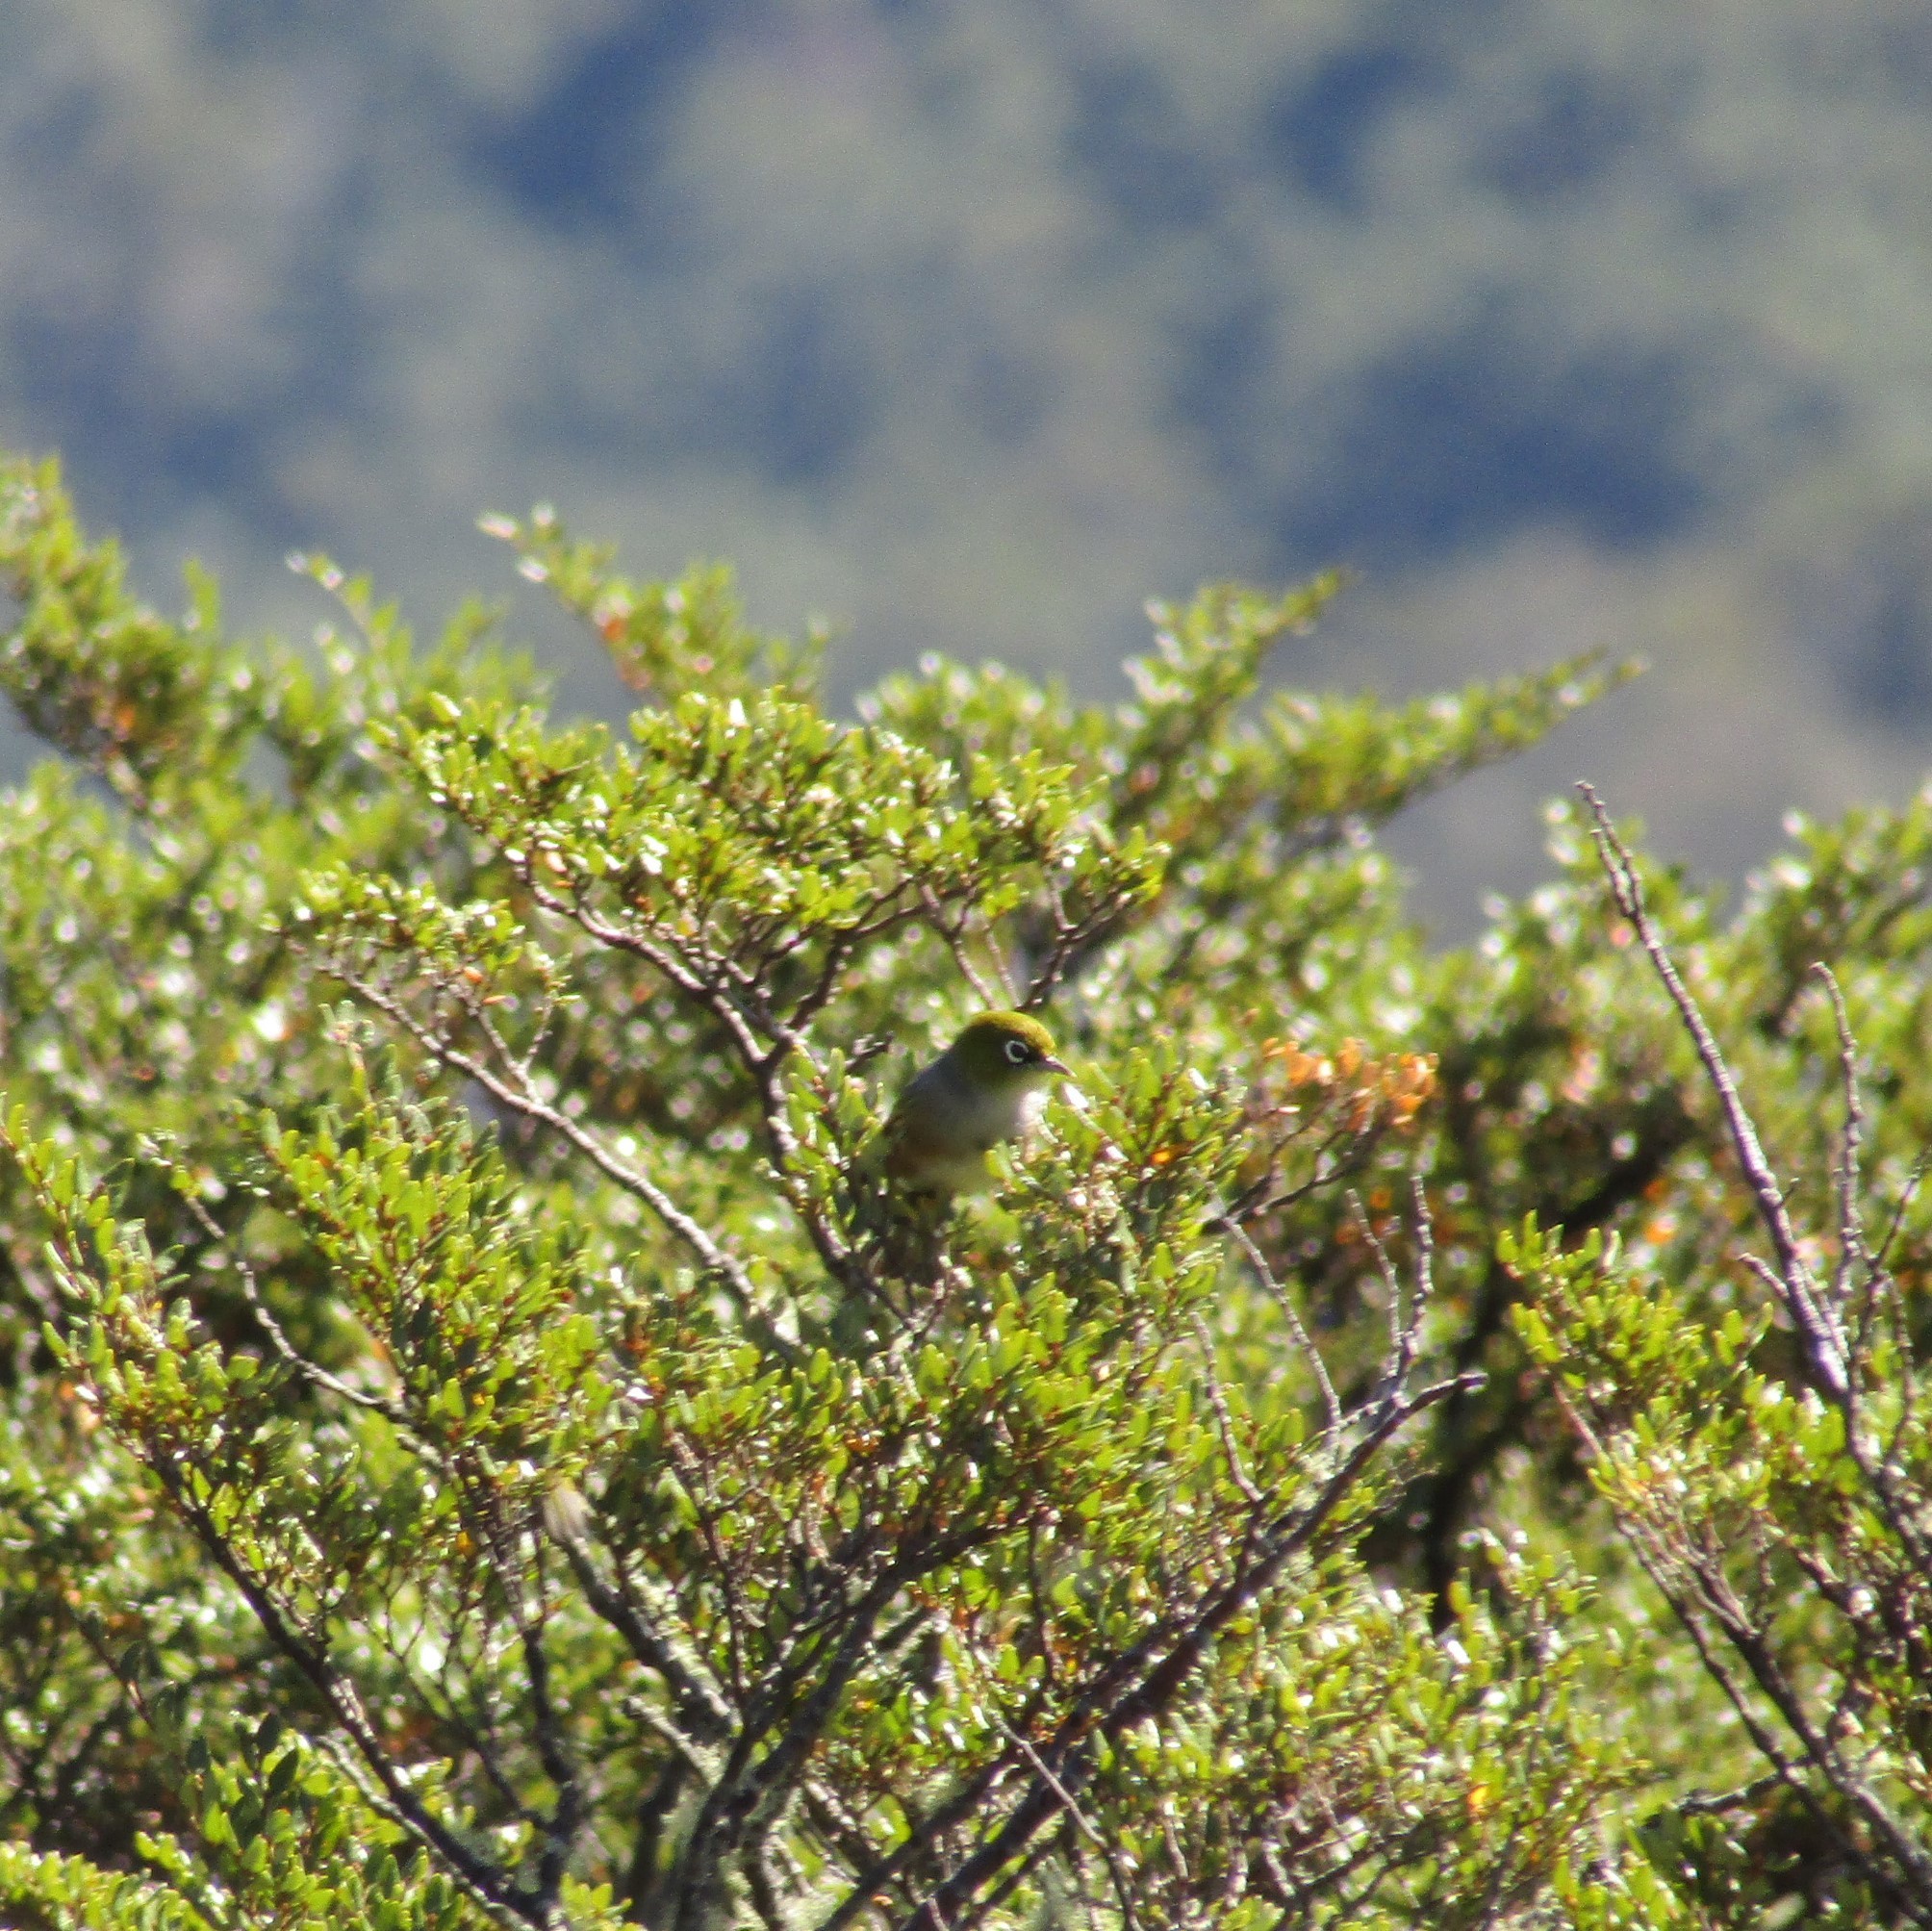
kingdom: Animalia
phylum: Chordata
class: Aves
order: Passeriformes
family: Zosteropidae
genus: Zosterops
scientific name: Zosterops lateralis
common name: Silvereye
